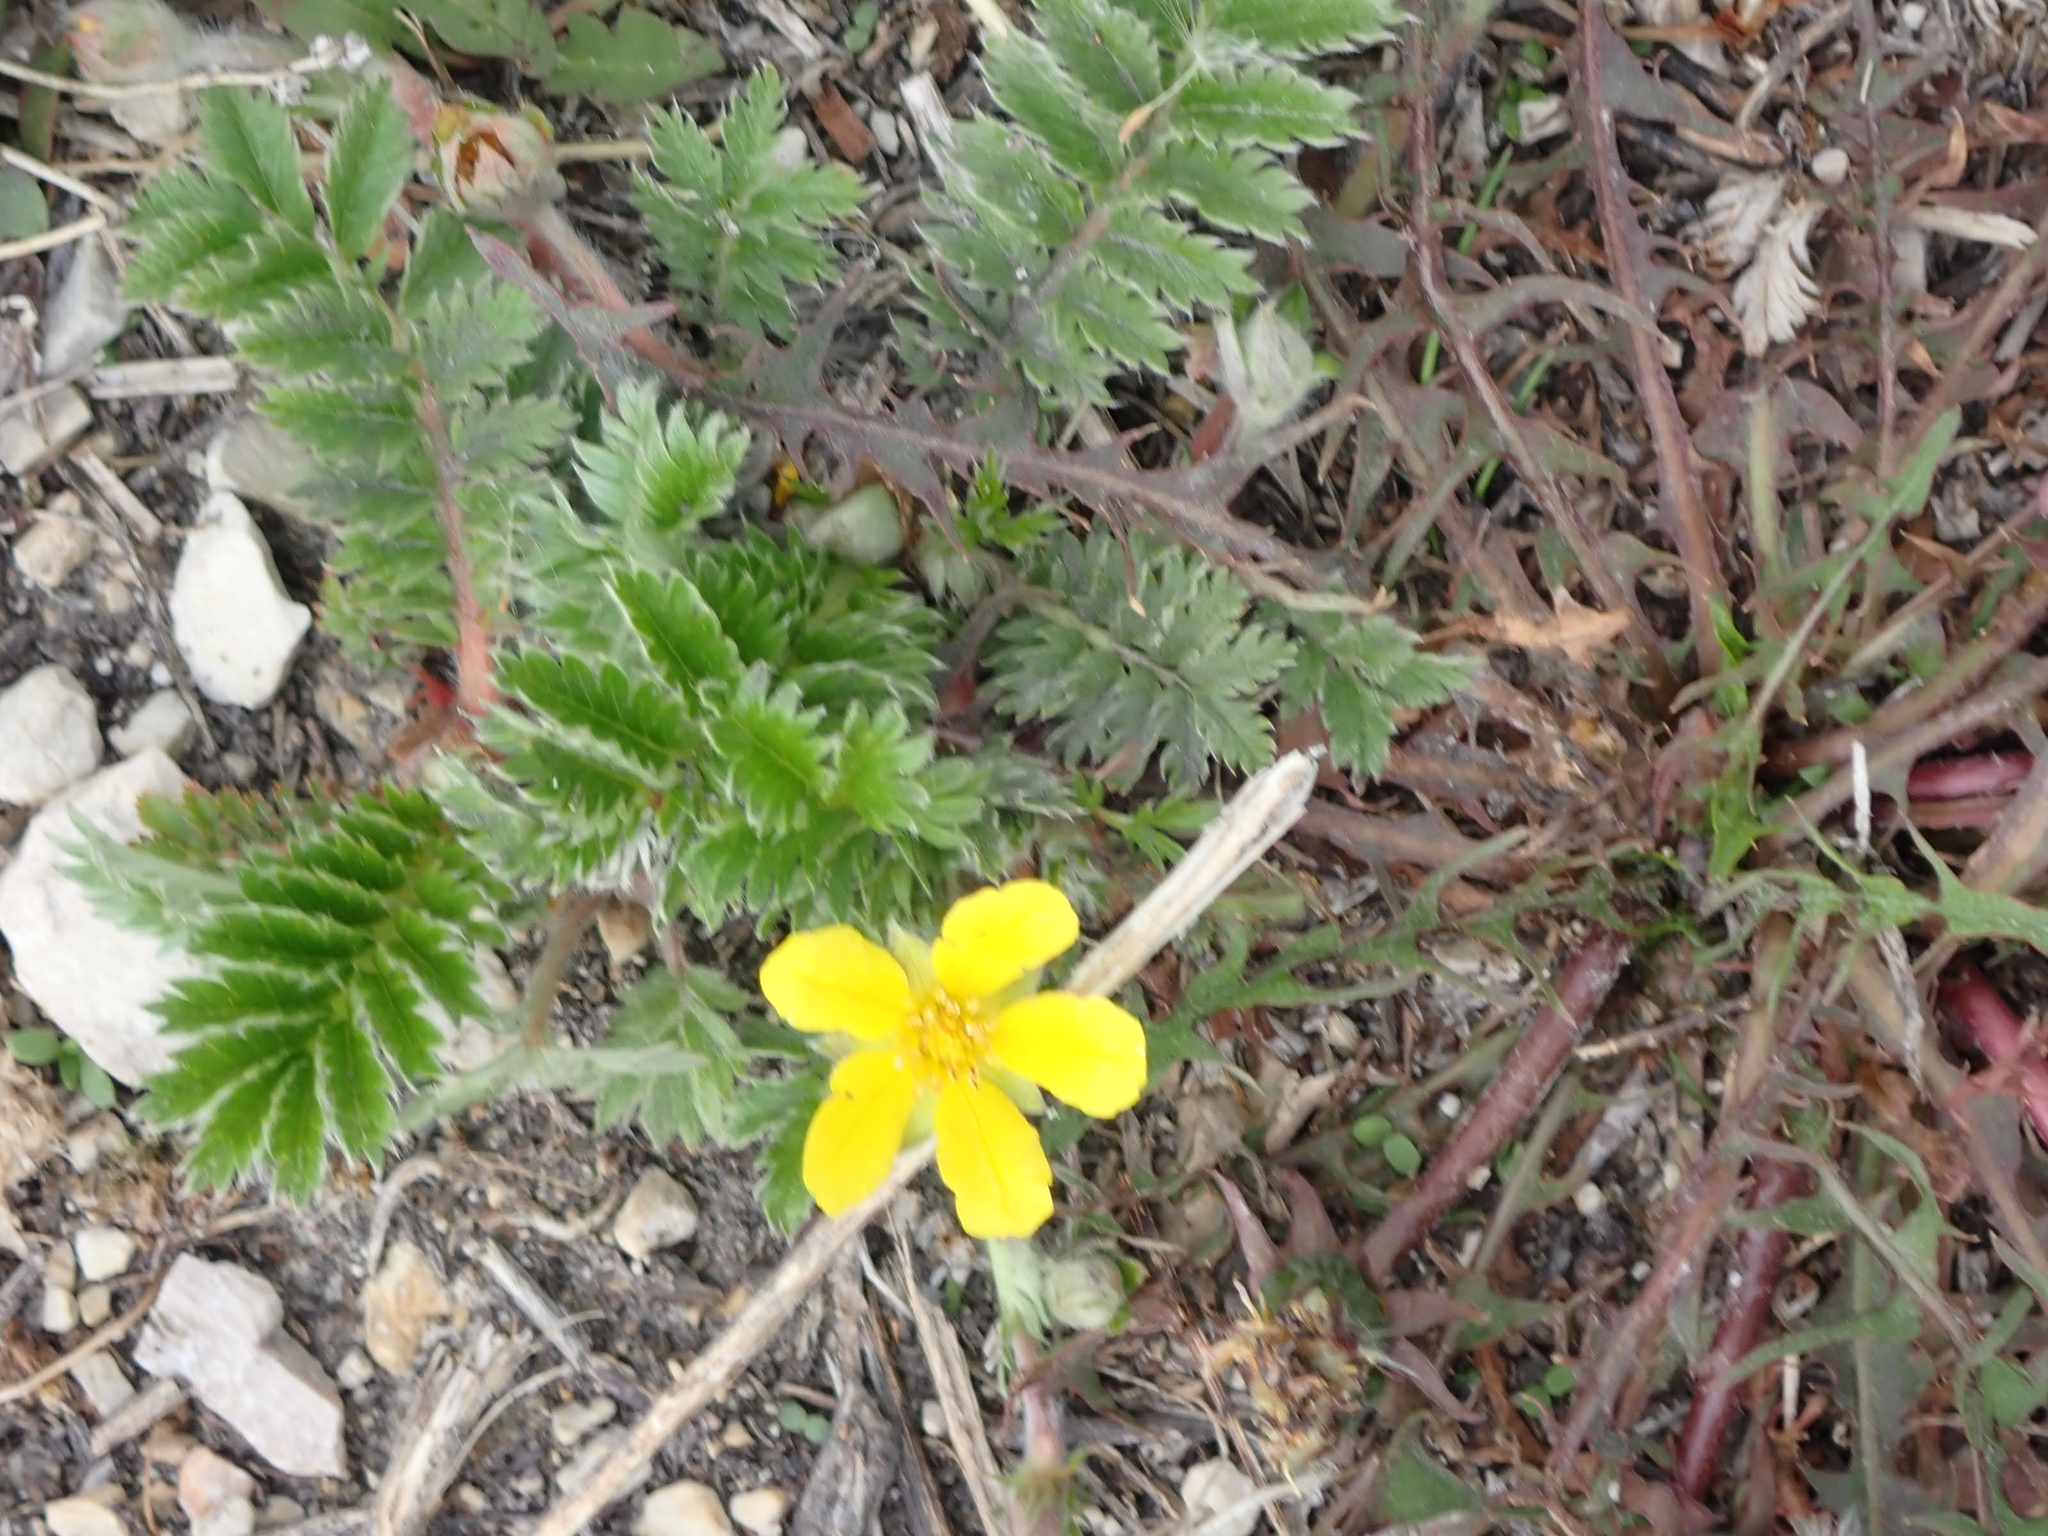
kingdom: Plantae
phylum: Tracheophyta
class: Magnoliopsida
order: Rosales
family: Rosaceae
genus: Argentina
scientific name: Argentina anserina
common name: Common silverweed
